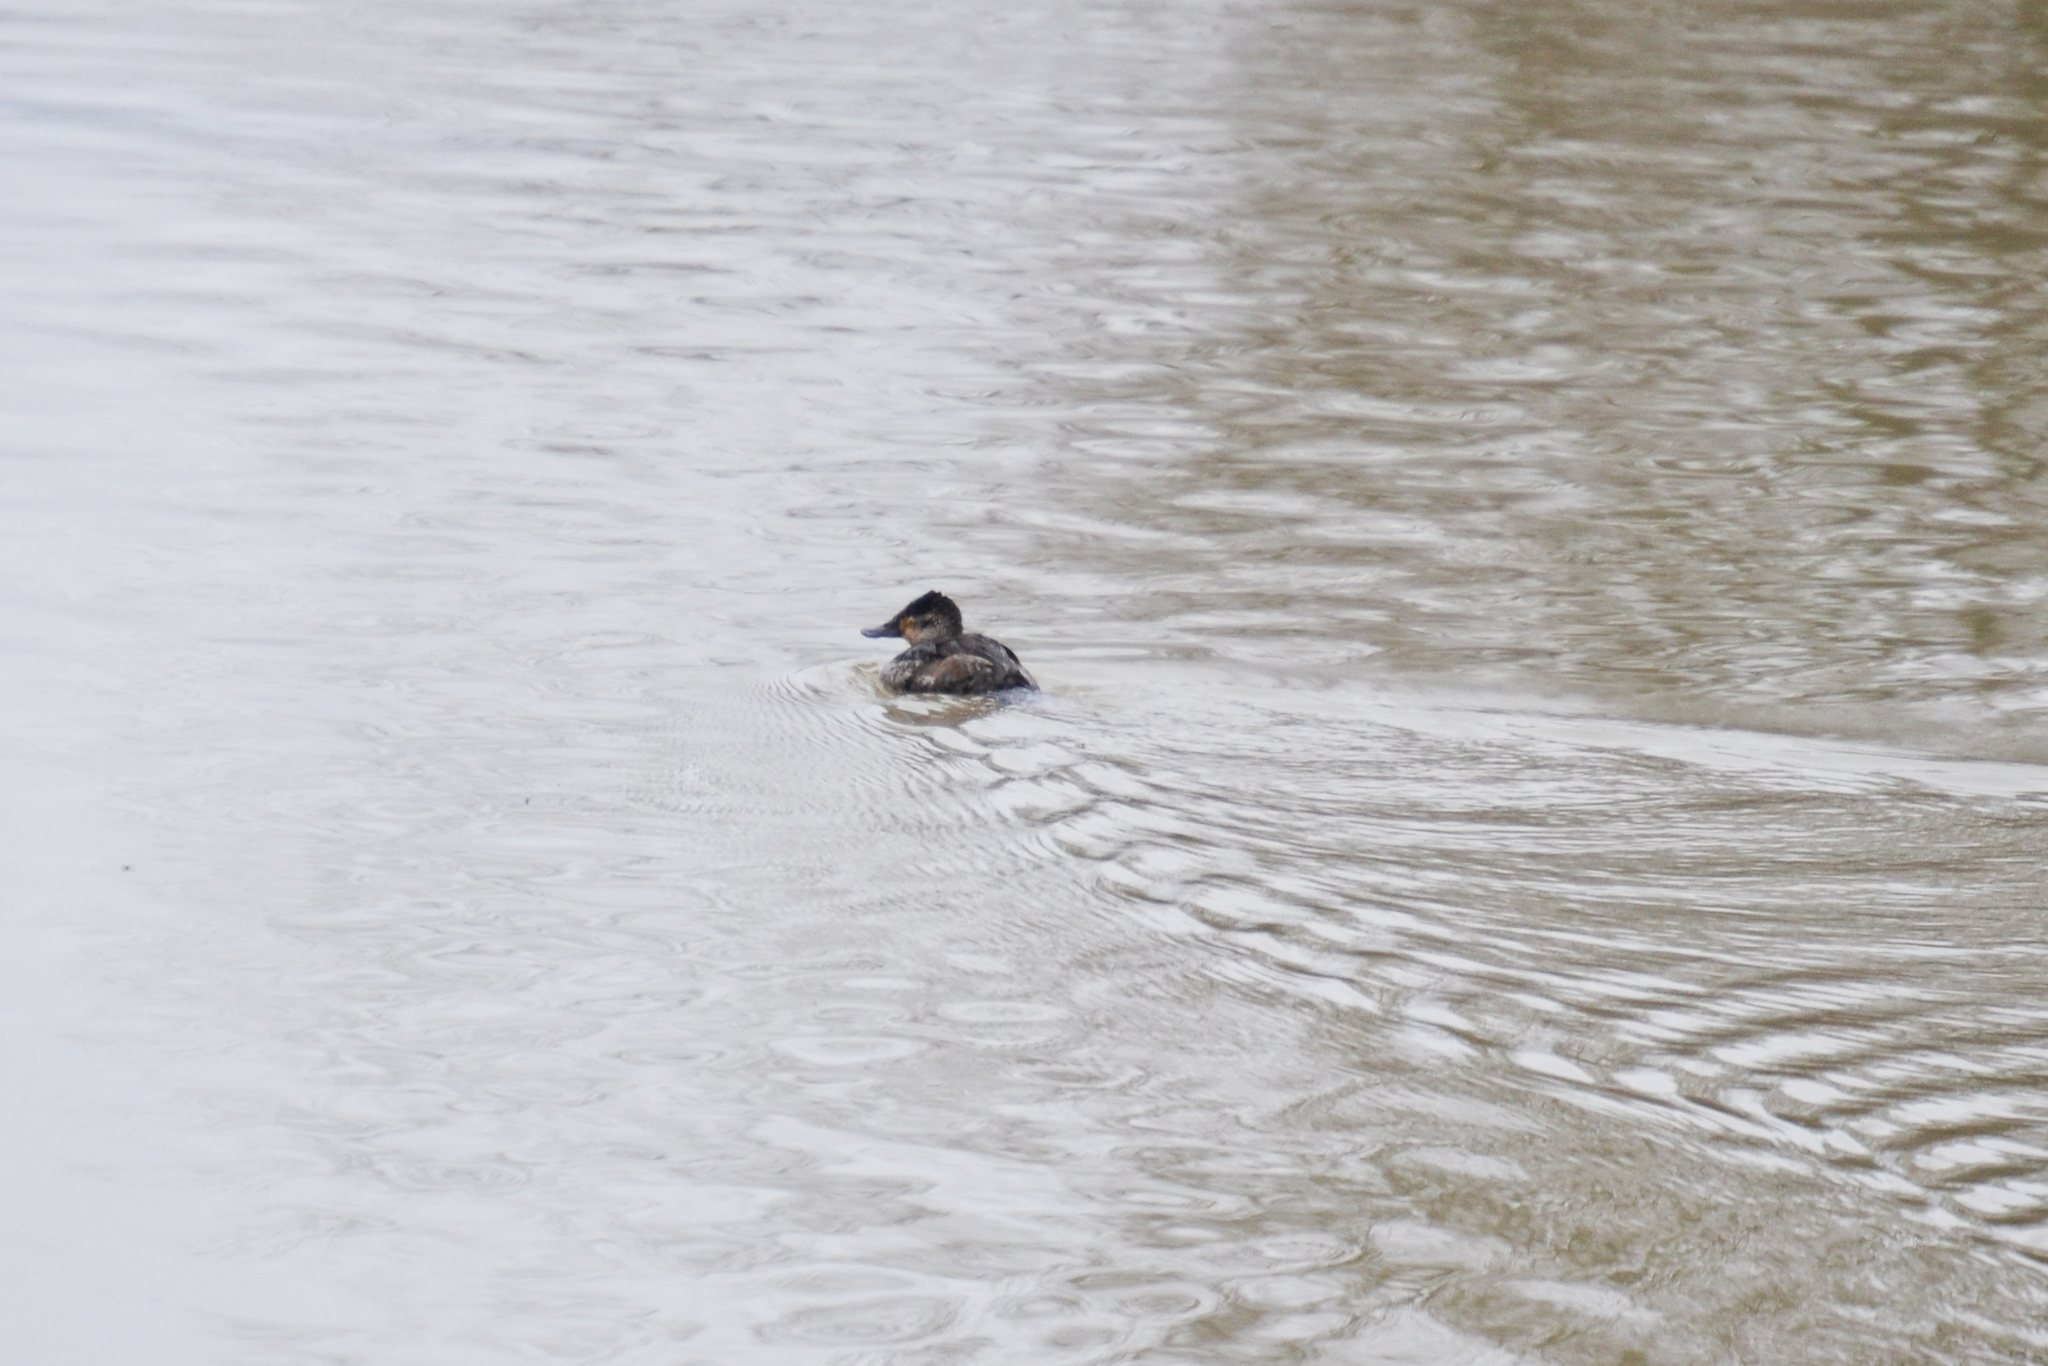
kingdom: Animalia
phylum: Chordata
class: Aves
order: Anseriformes
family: Anatidae
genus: Oxyura
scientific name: Oxyura jamaicensis
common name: Ruddy duck
